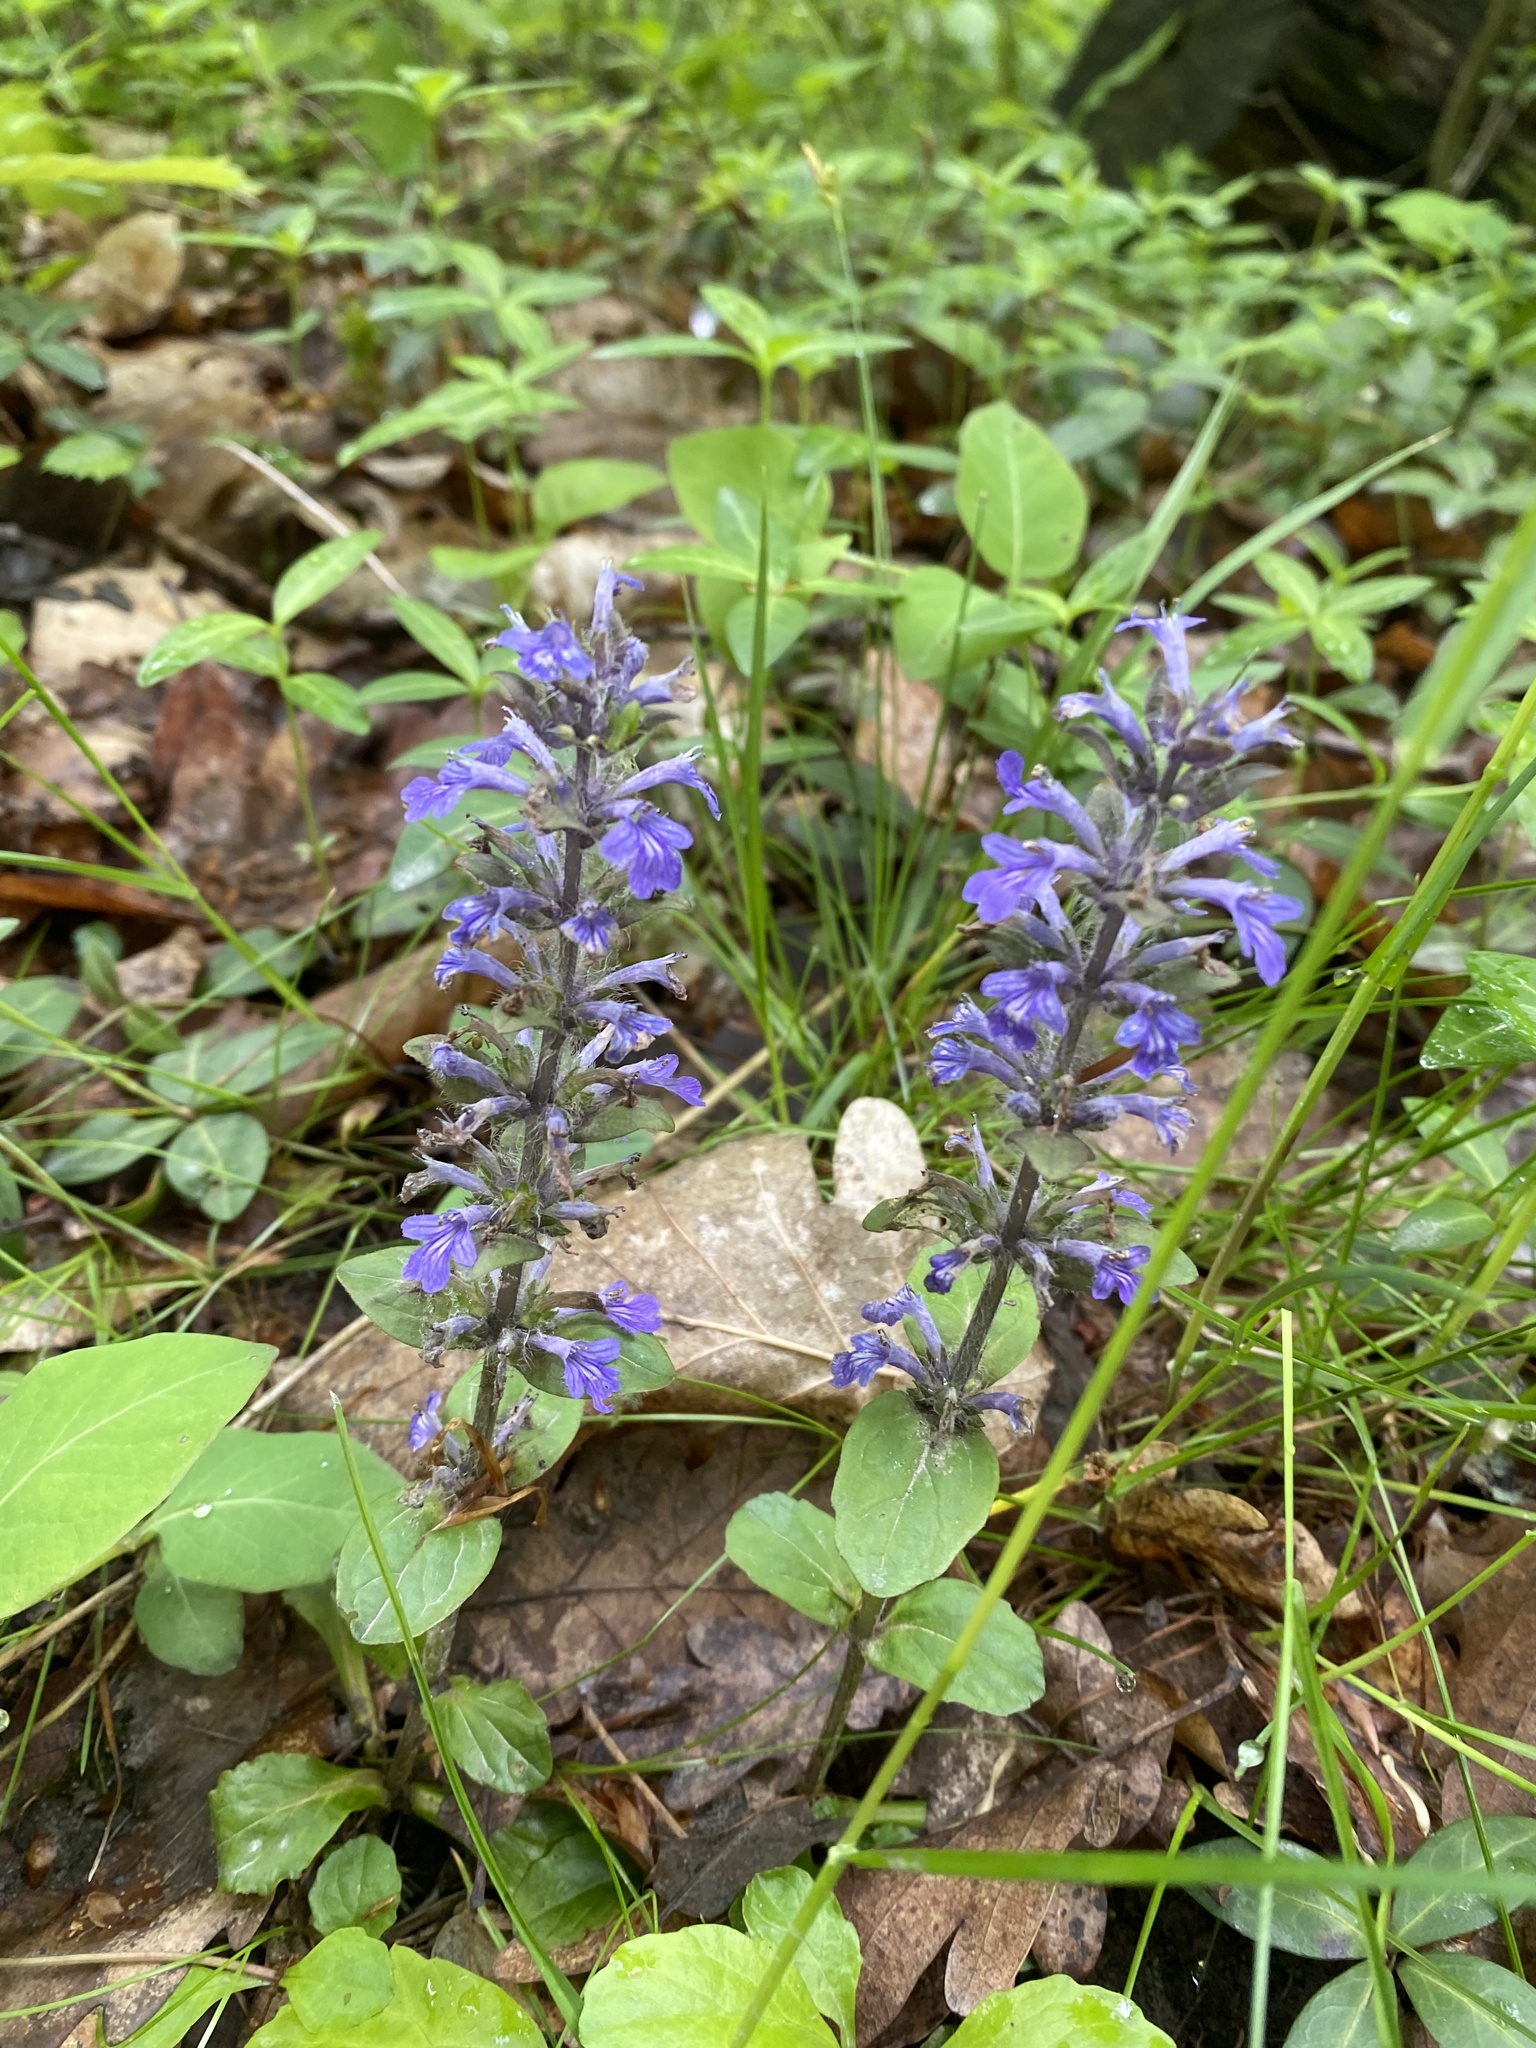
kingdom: Plantae
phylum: Tracheophyta
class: Magnoliopsida
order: Lamiales
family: Lamiaceae
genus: Ajuga
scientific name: Ajuga reptans
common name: Bugle
